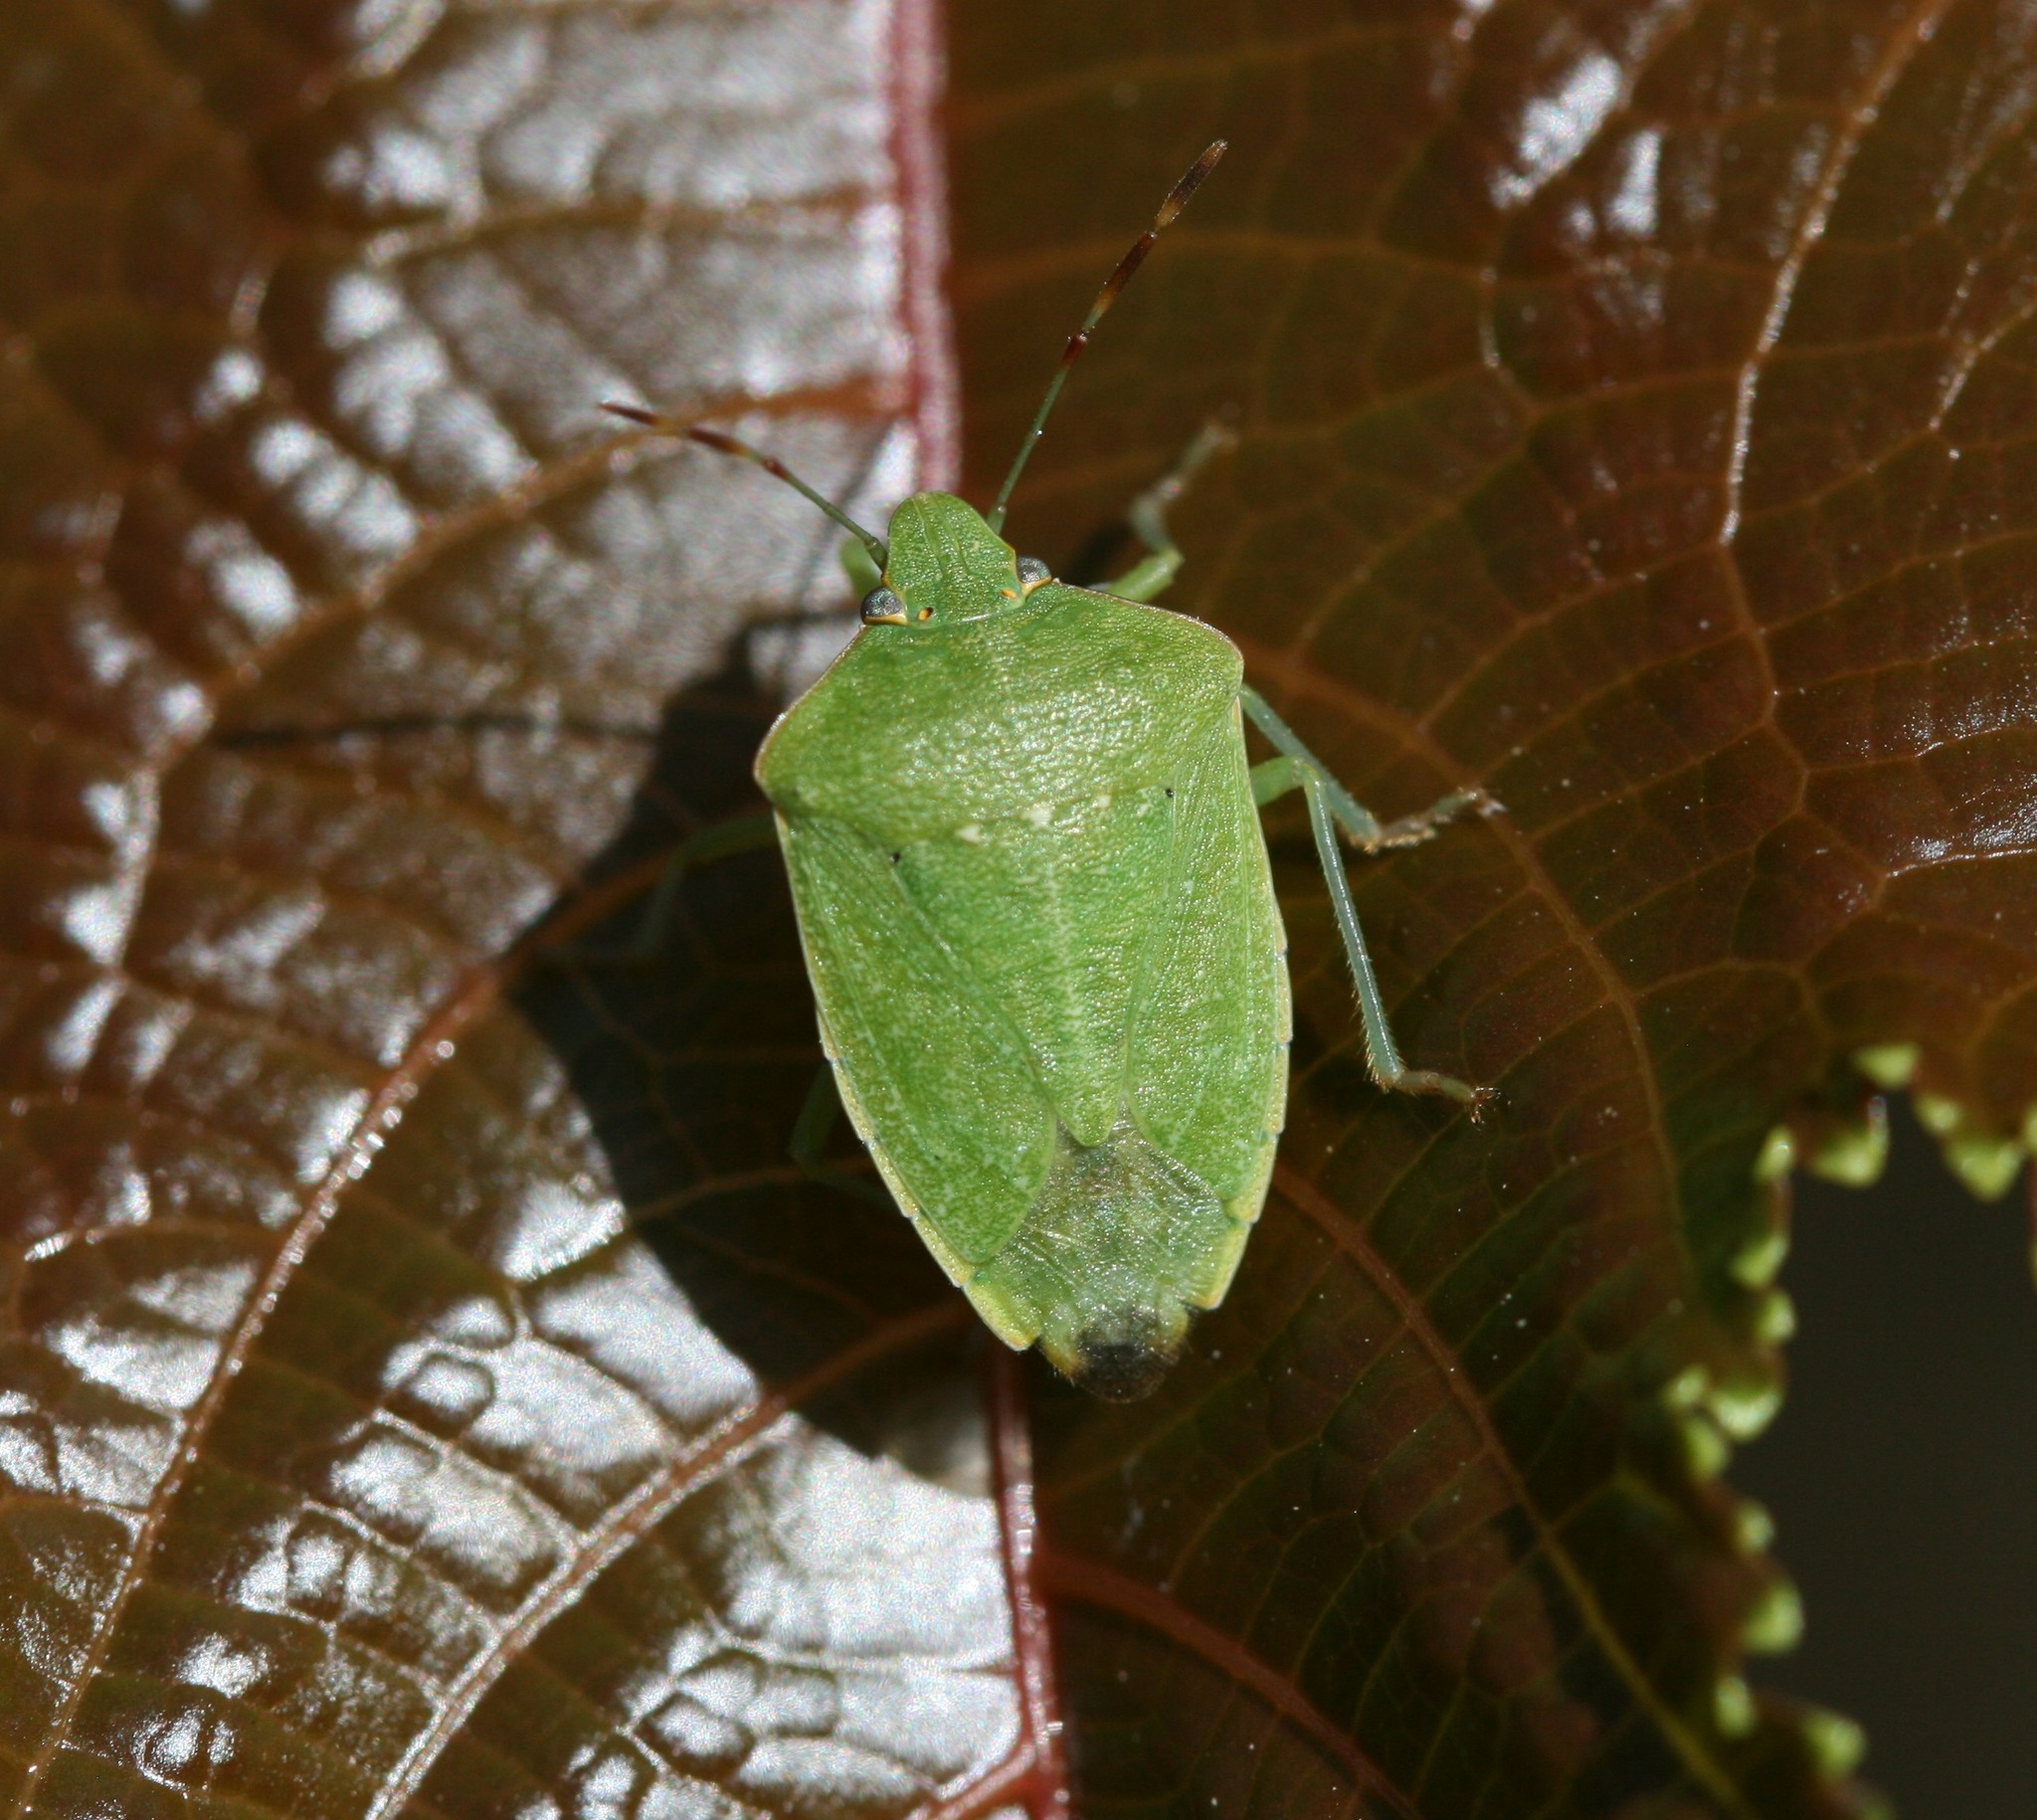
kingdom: Animalia
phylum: Arthropoda
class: Insecta
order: Hemiptera
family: Pentatomidae
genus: Nezara
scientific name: Nezara viridula
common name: Southern green stink bug
